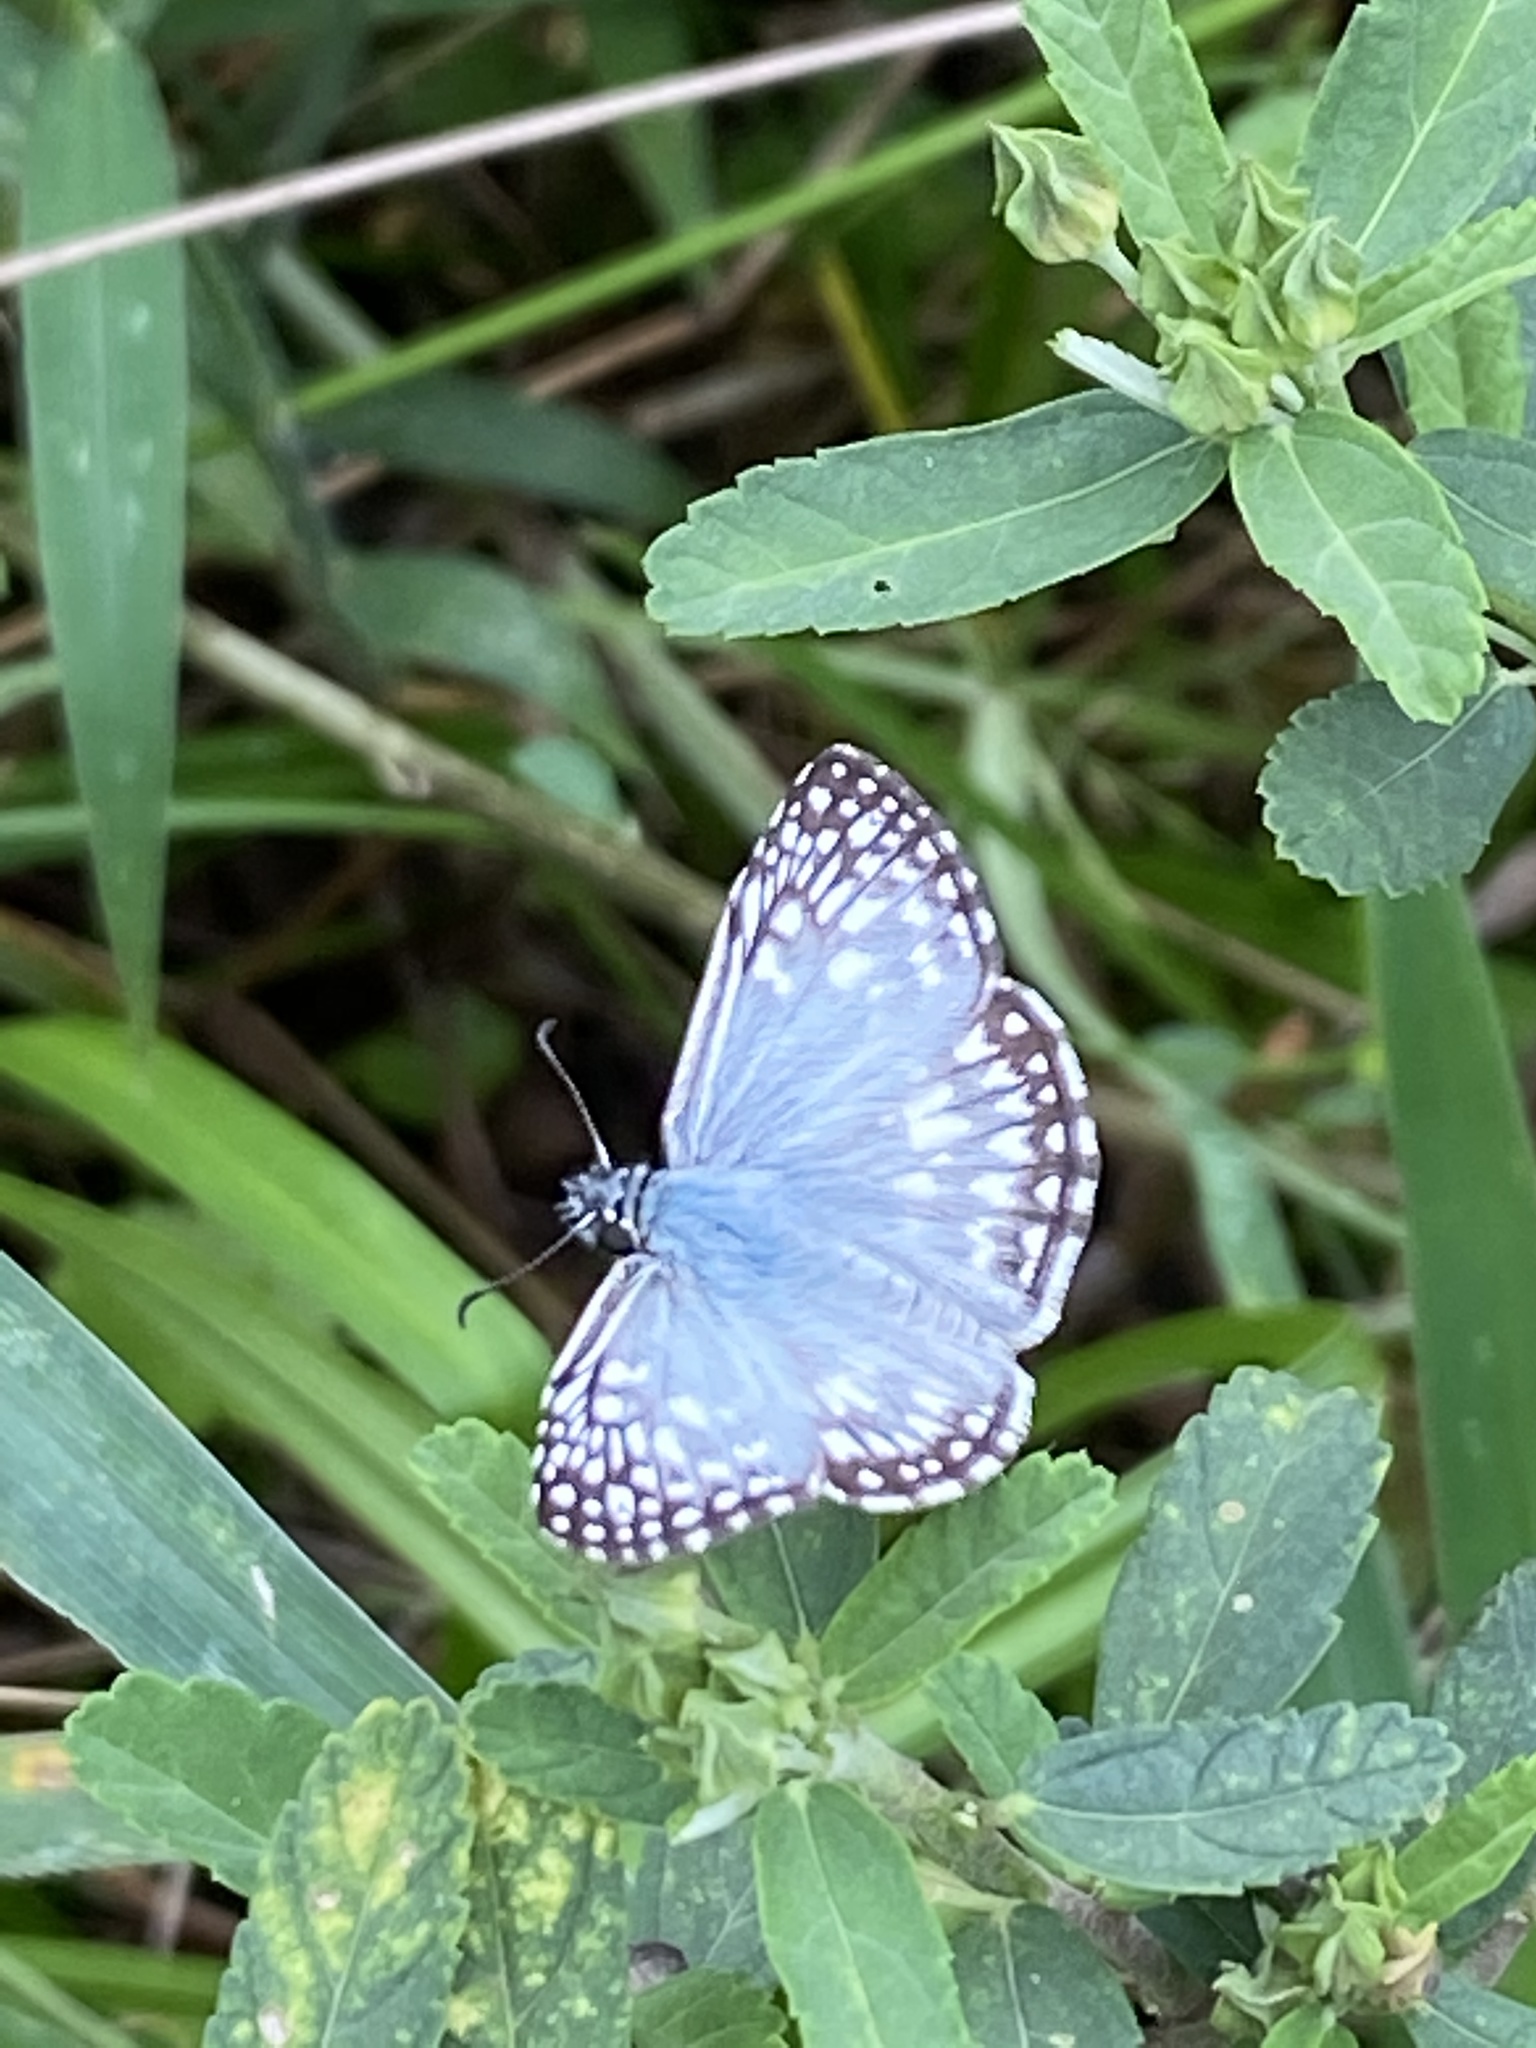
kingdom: Animalia
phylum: Arthropoda
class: Insecta
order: Lepidoptera
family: Hesperiidae
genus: Pyrgus
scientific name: Pyrgus oileus
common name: Tropical checkered-skipper
